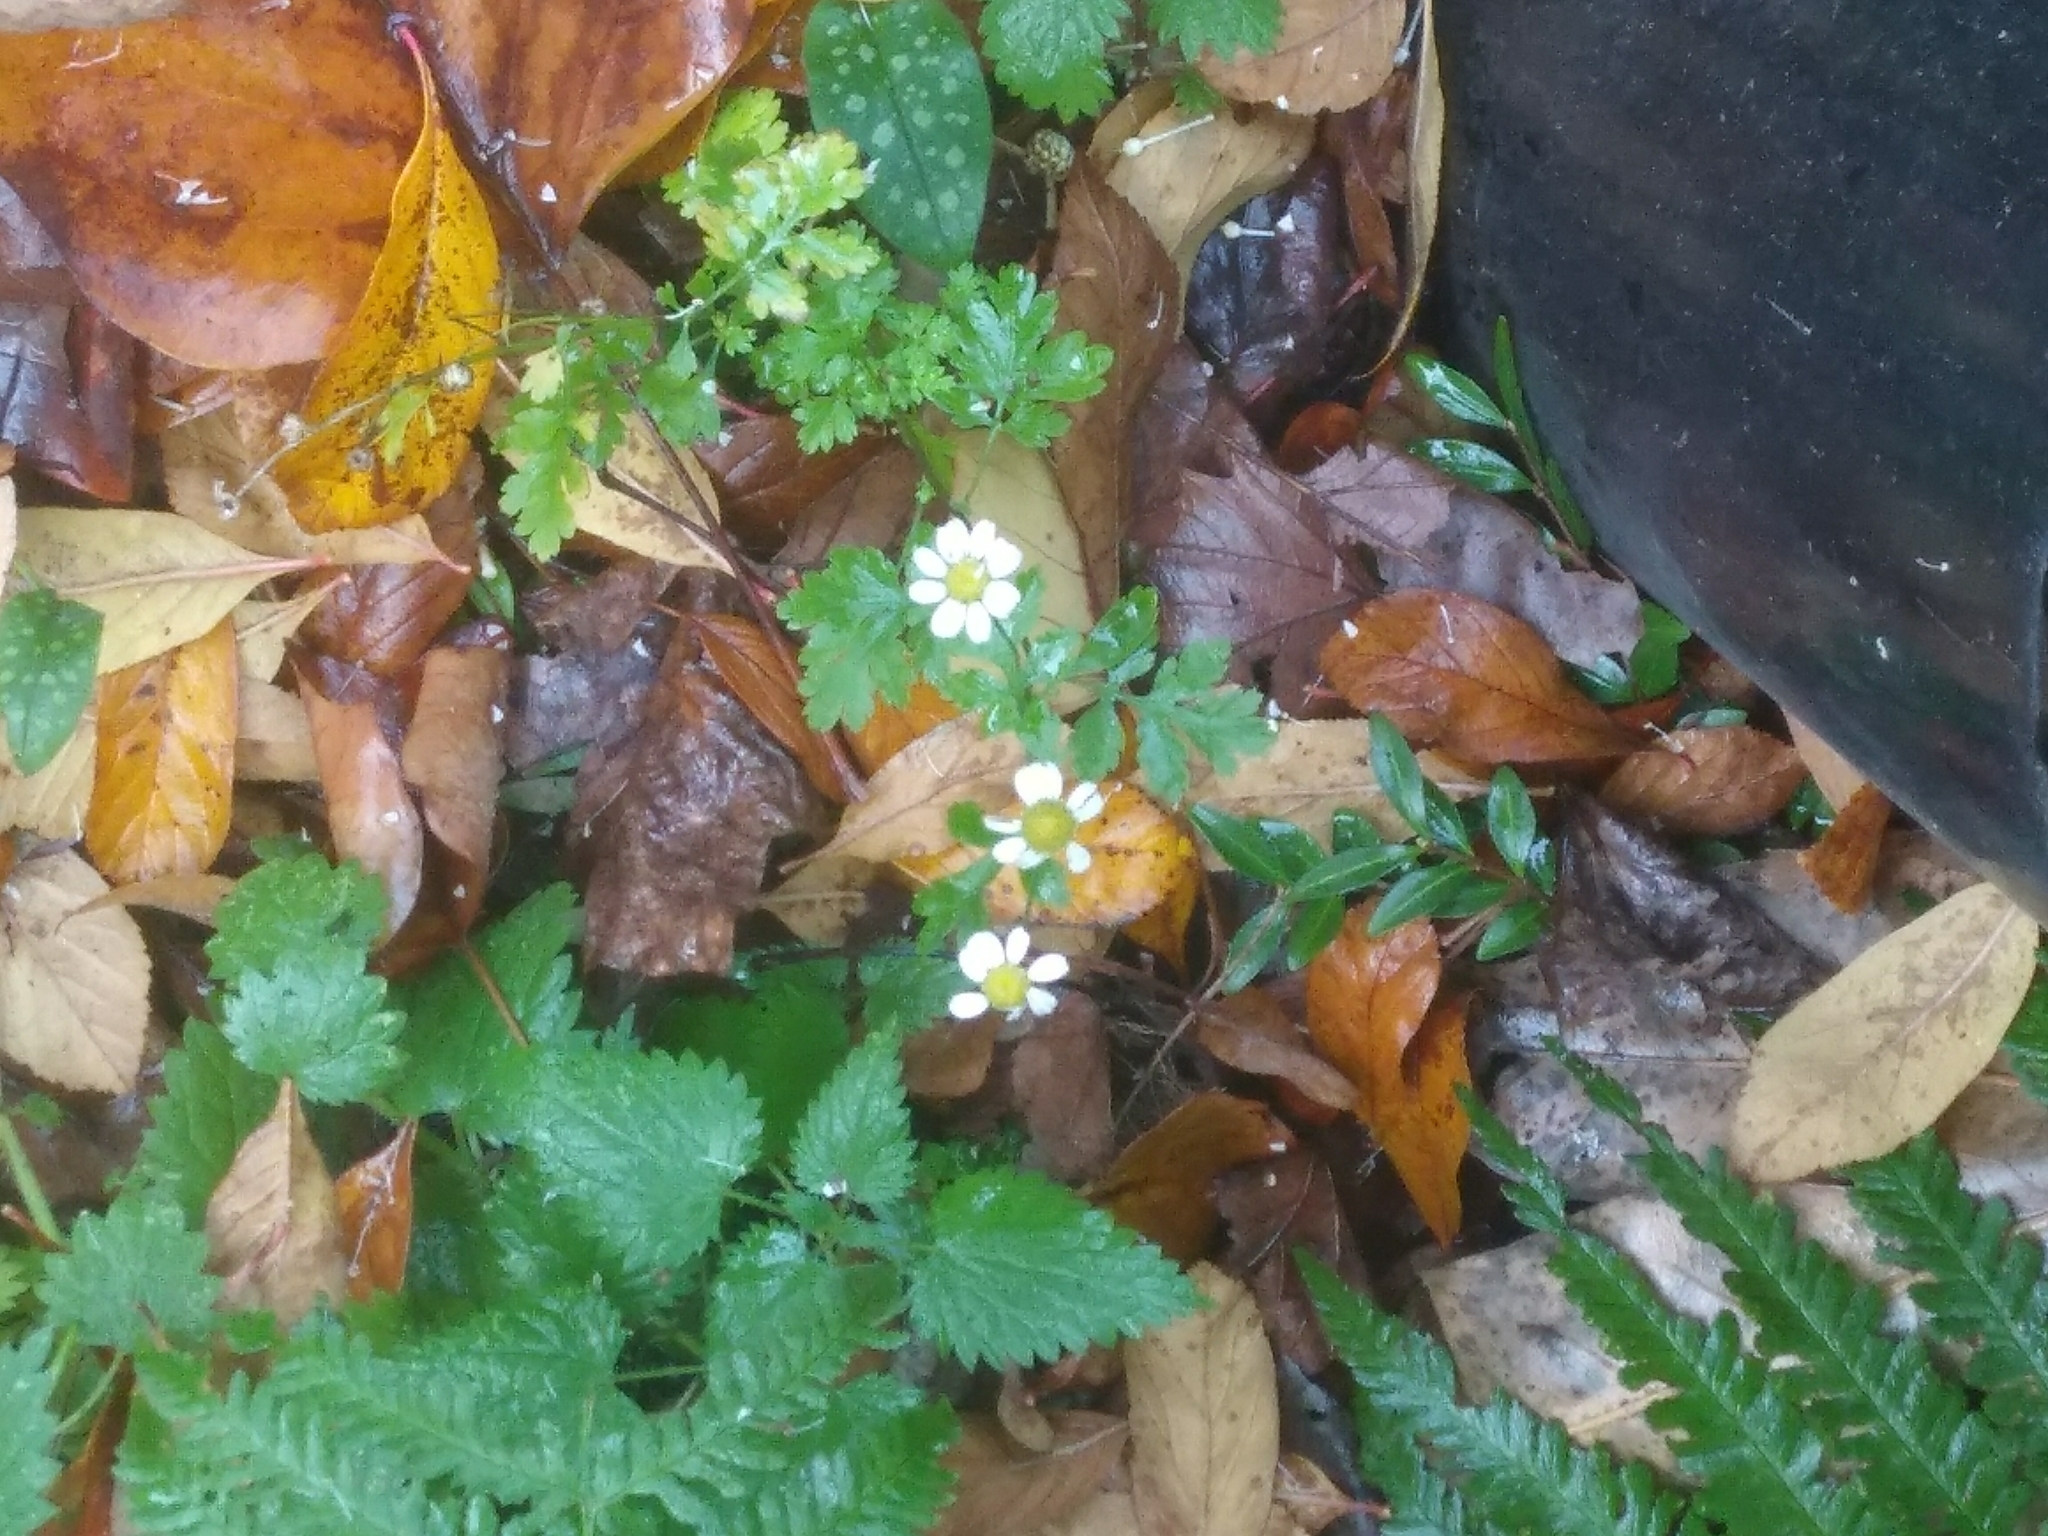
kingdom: Plantae
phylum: Tracheophyta
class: Magnoliopsida
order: Asterales
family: Asteraceae
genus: Tanacetum
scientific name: Tanacetum parthenium
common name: Feverfew
